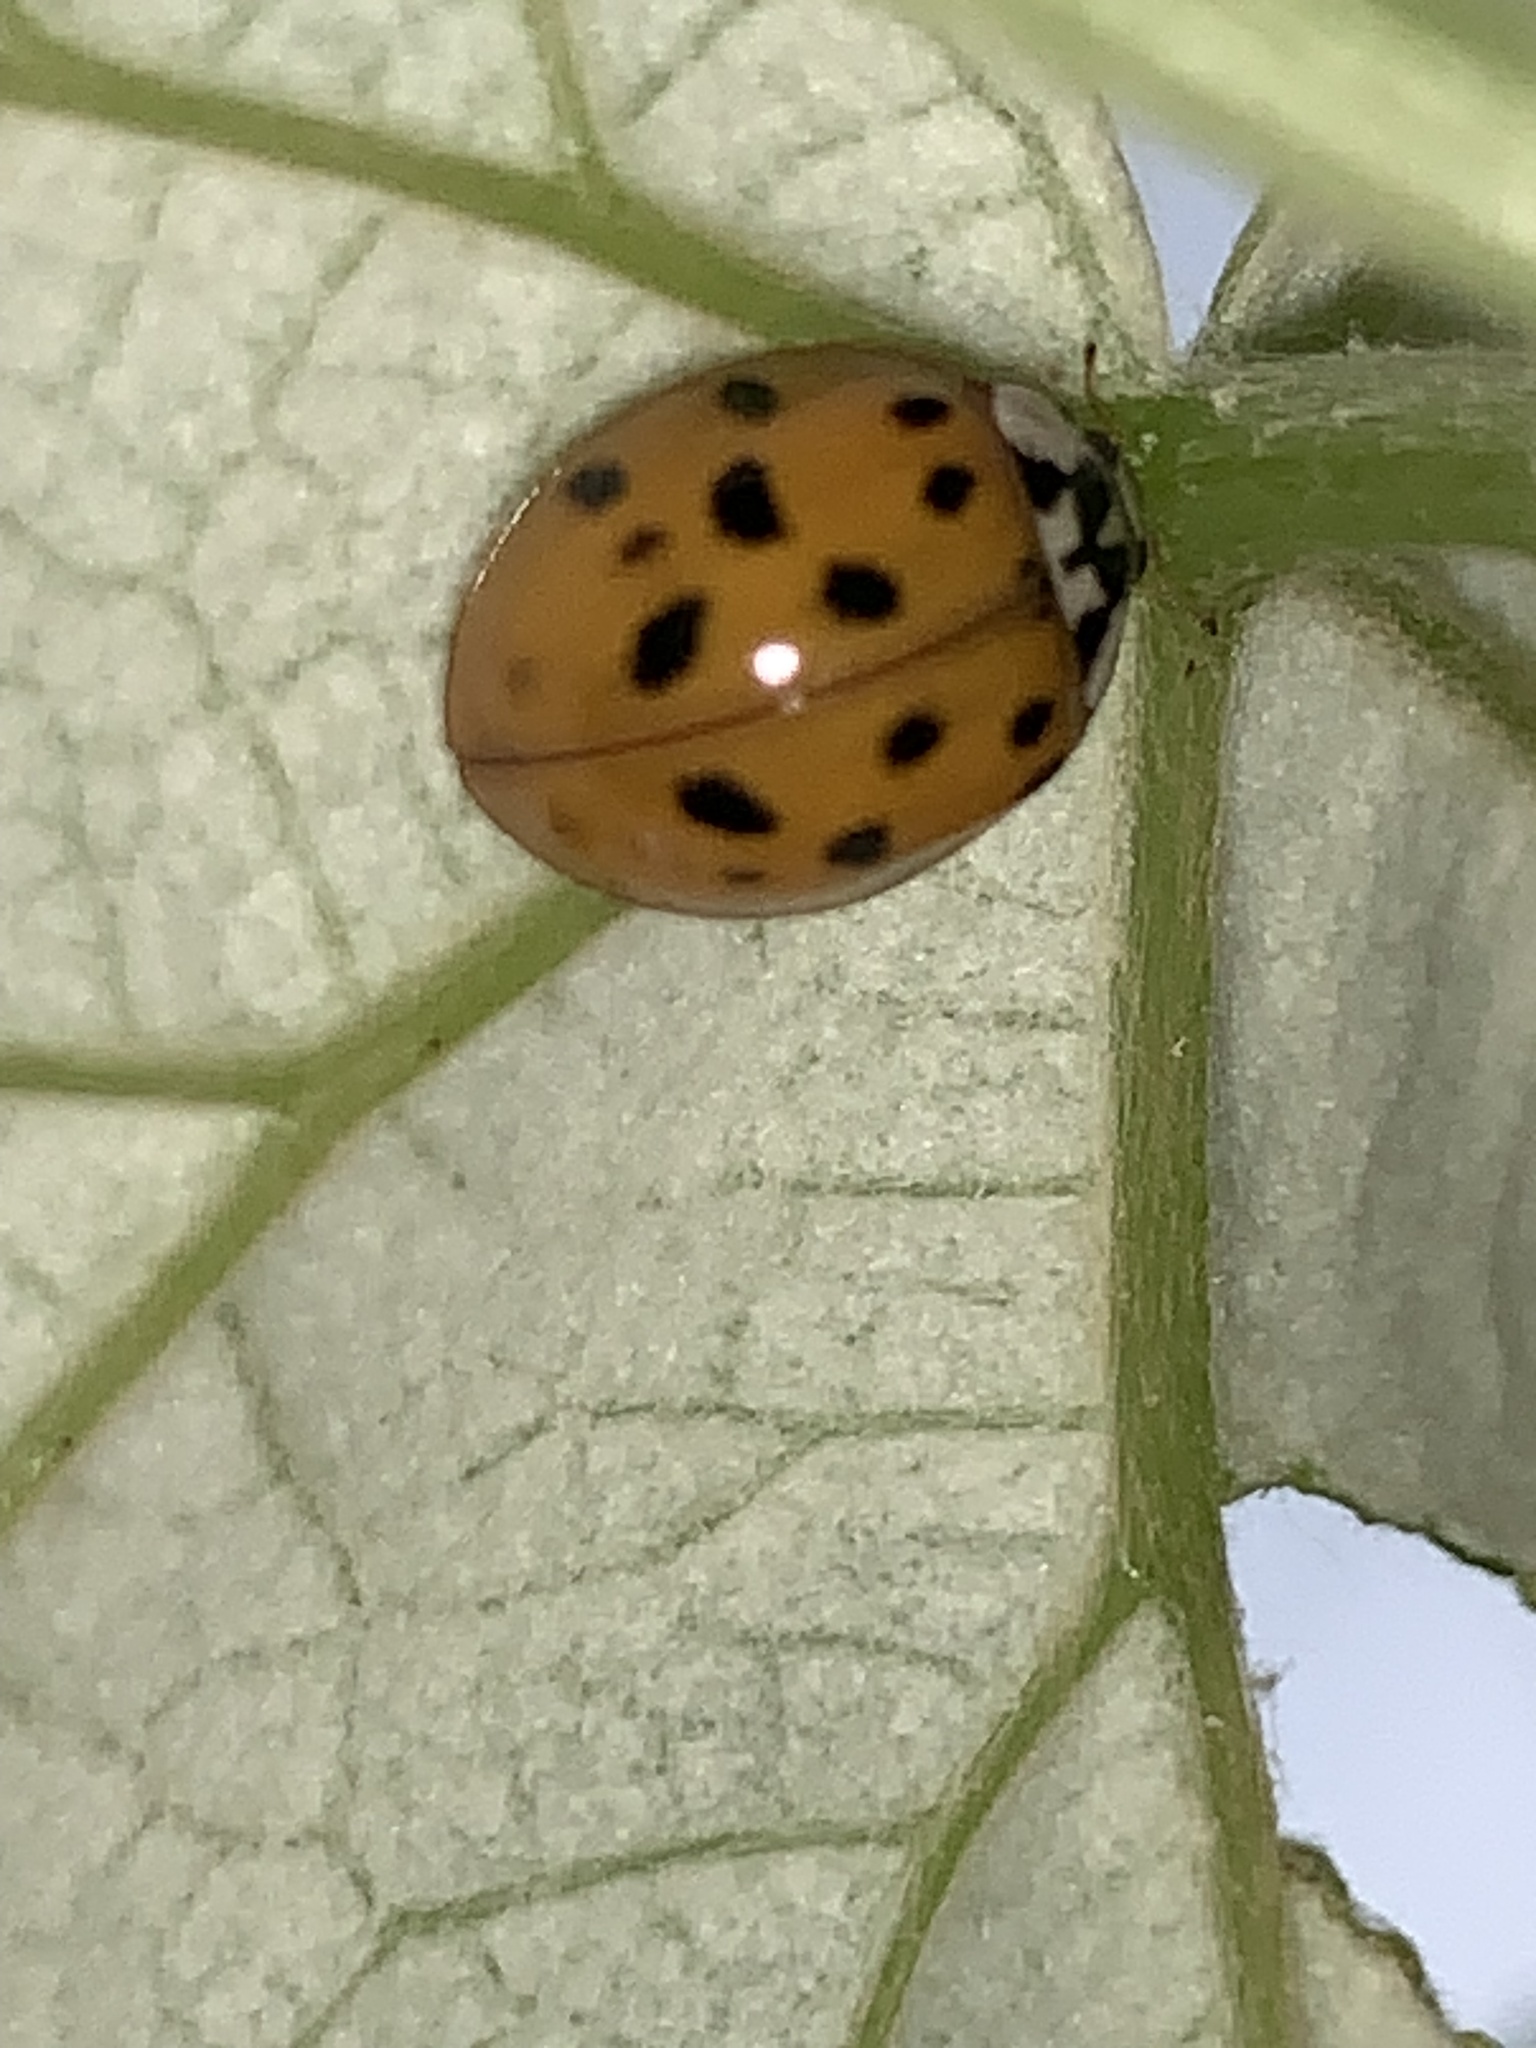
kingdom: Animalia
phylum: Arthropoda
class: Insecta
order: Coleoptera
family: Coccinellidae
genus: Harmonia
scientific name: Harmonia axyridis
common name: Harlequin ladybird
